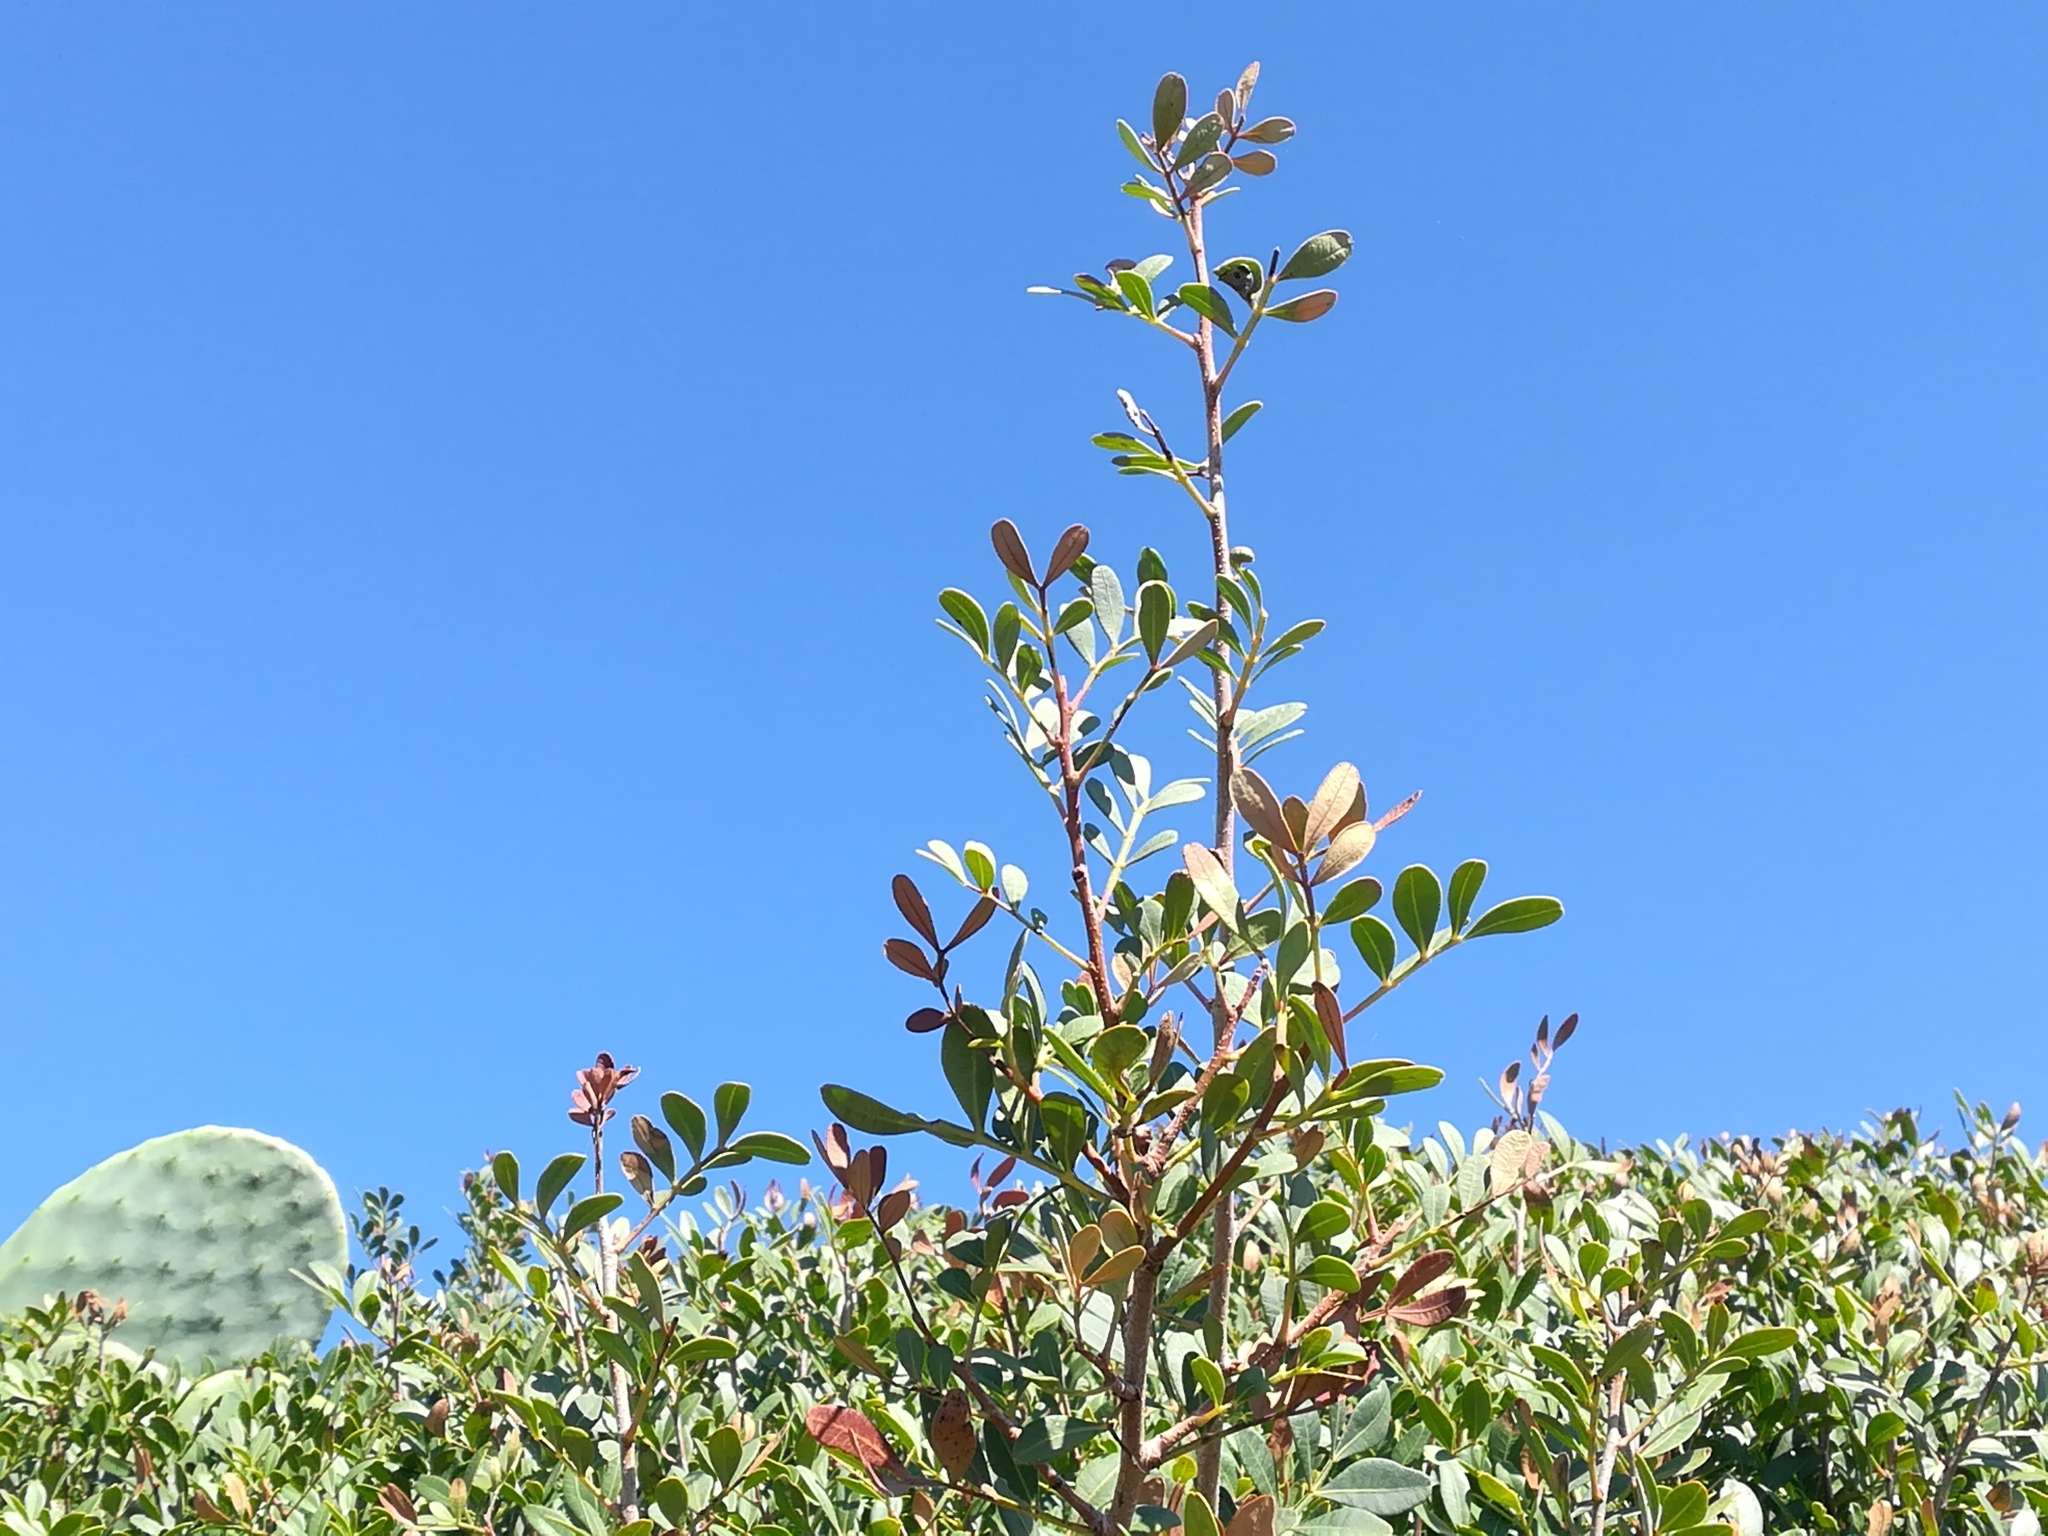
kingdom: Plantae
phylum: Tracheophyta
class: Magnoliopsida
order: Sapindales
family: Anacardiaceae
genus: Pistacia
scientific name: Pistacia lentiscus
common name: Lentisk
